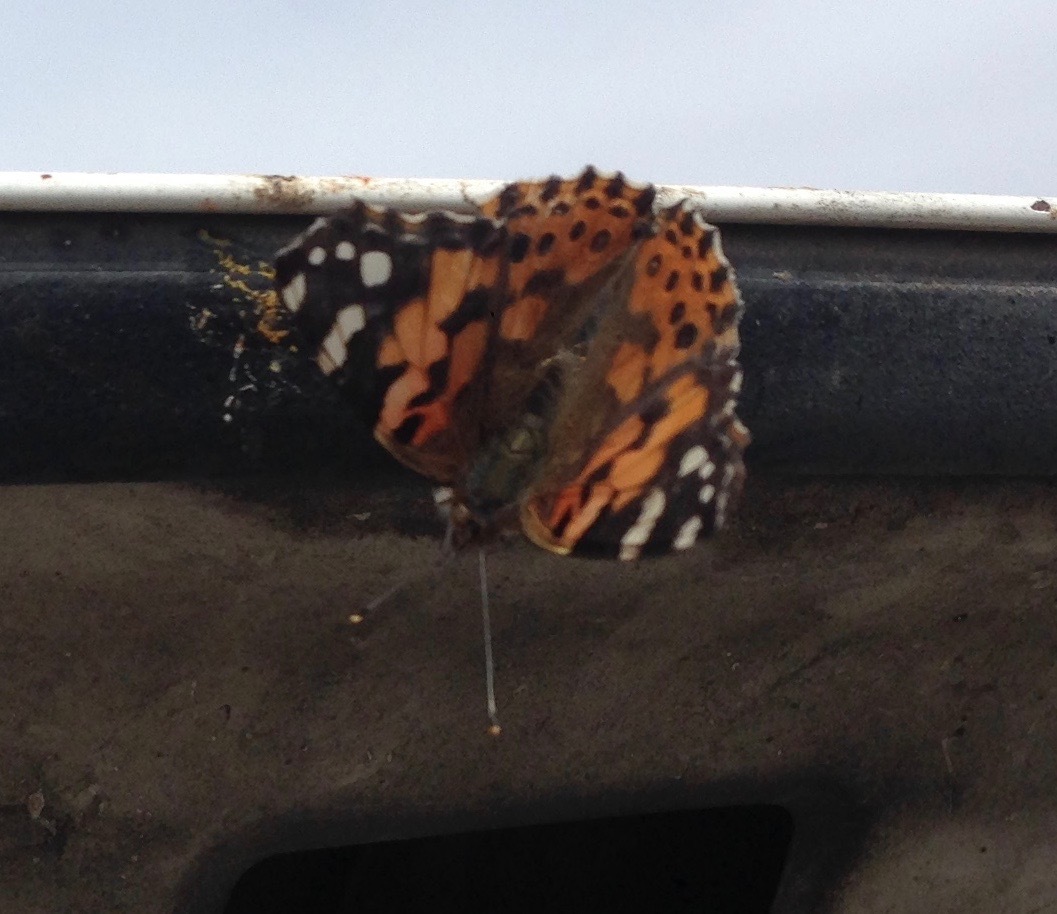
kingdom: Animalia
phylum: Arthropoda
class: Insecta
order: Lepidoptera
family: Nymphalidae
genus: Vanessa
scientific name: Vanessa cardui
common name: Painted lady
